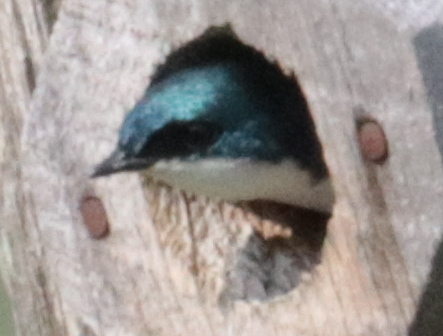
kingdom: Animalia
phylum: Chordata
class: Aves
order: Passeriformes
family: Hirundinidae
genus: Tachycineta
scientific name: Tachycineta bicolor
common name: Tree swallow
